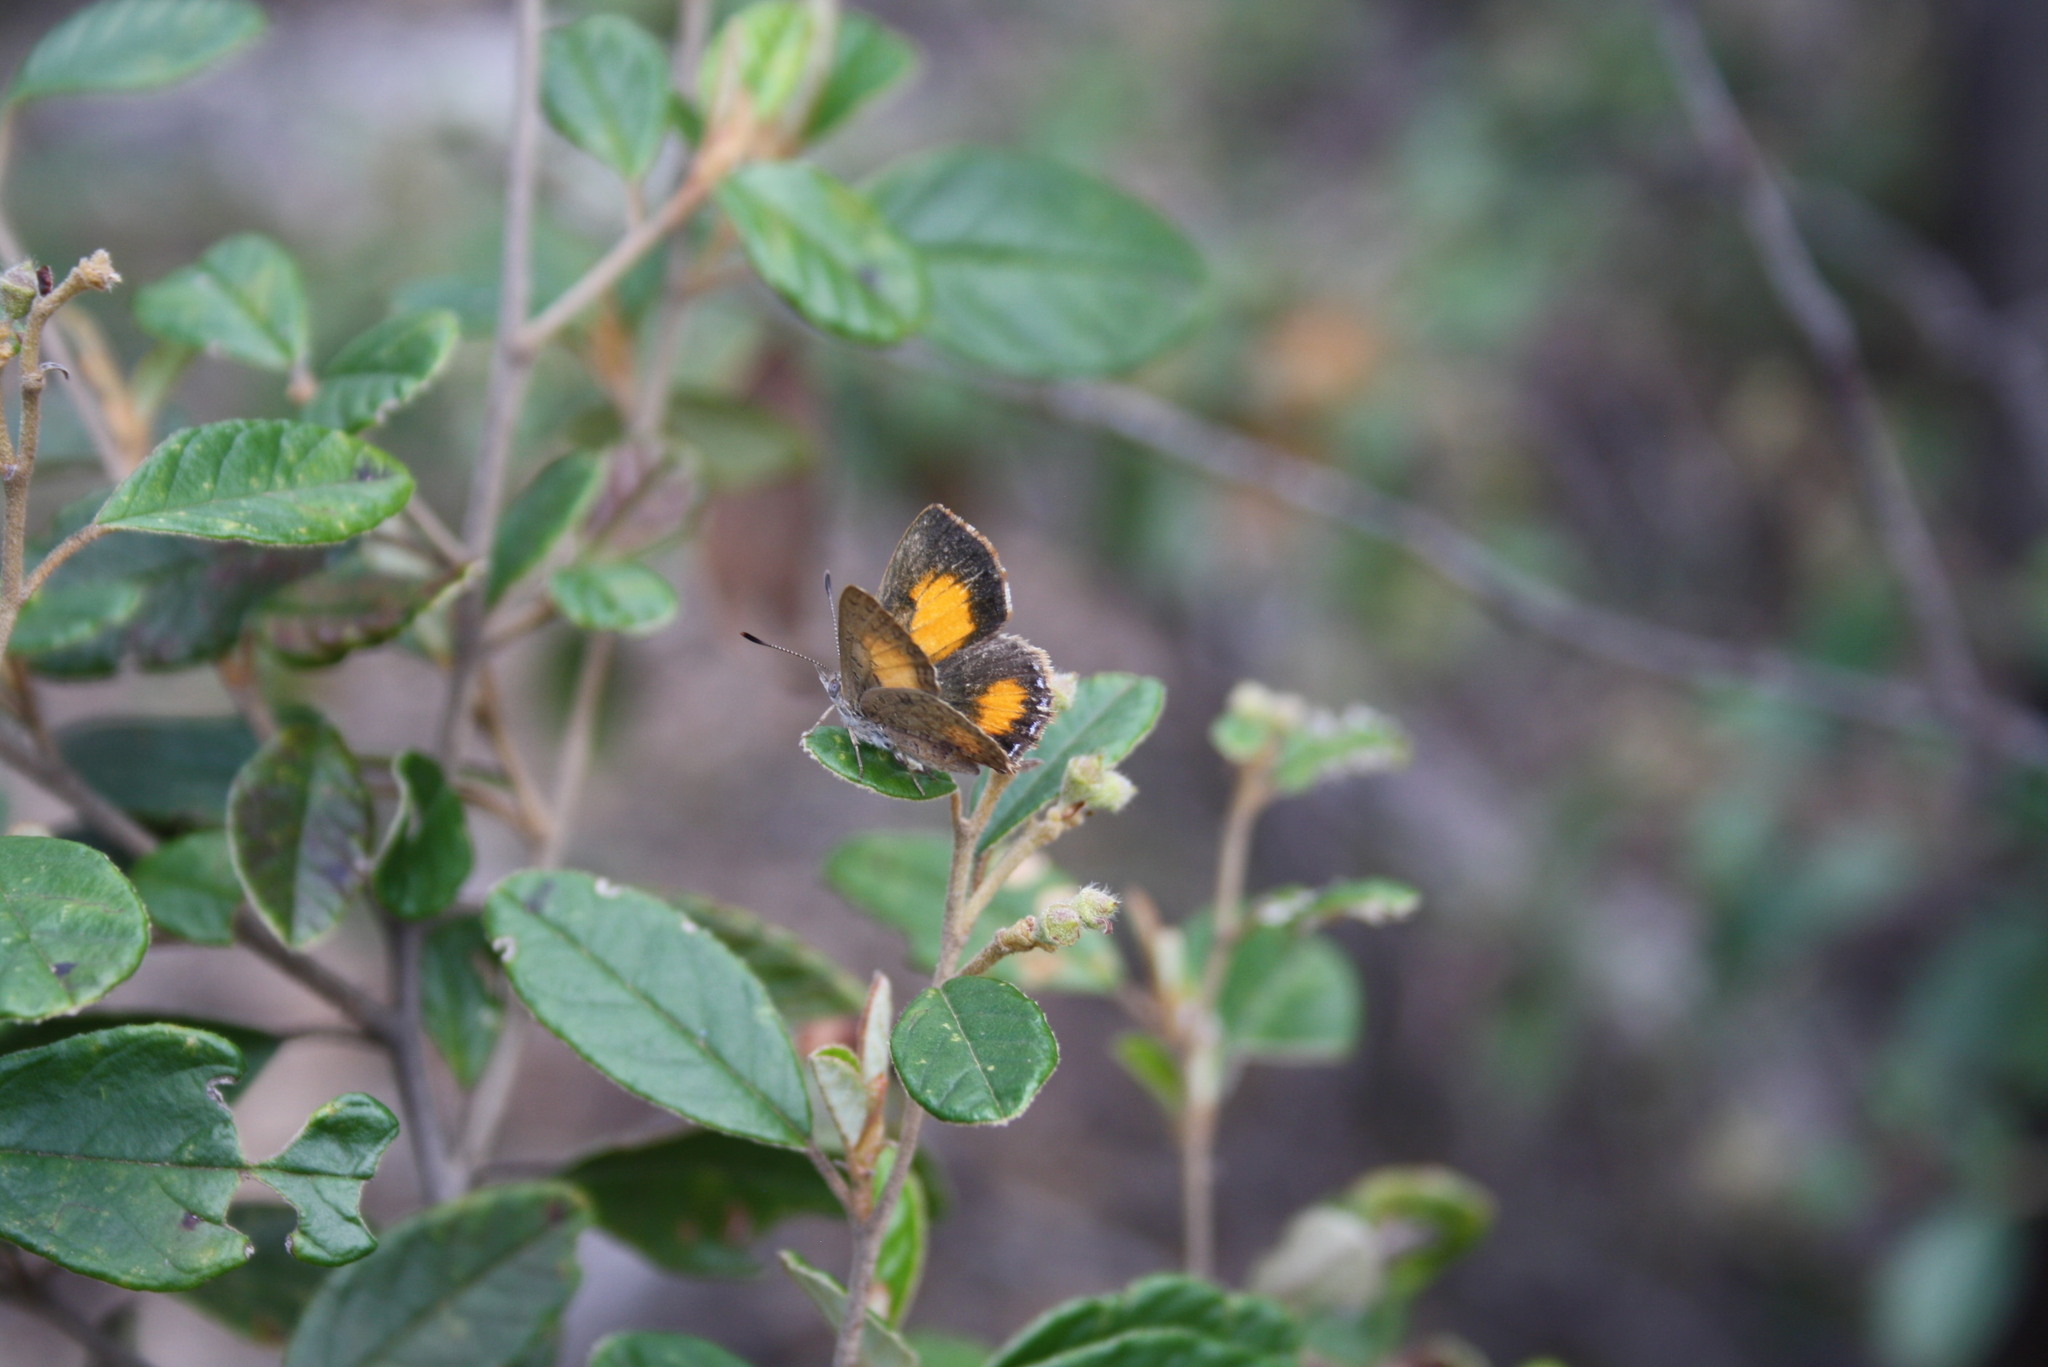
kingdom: Animalia
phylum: Arthropoda
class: Insecta
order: Lepidoptera
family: Lycaenidae
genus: Paralucia
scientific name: Paralucia aurifer
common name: Bright copper
